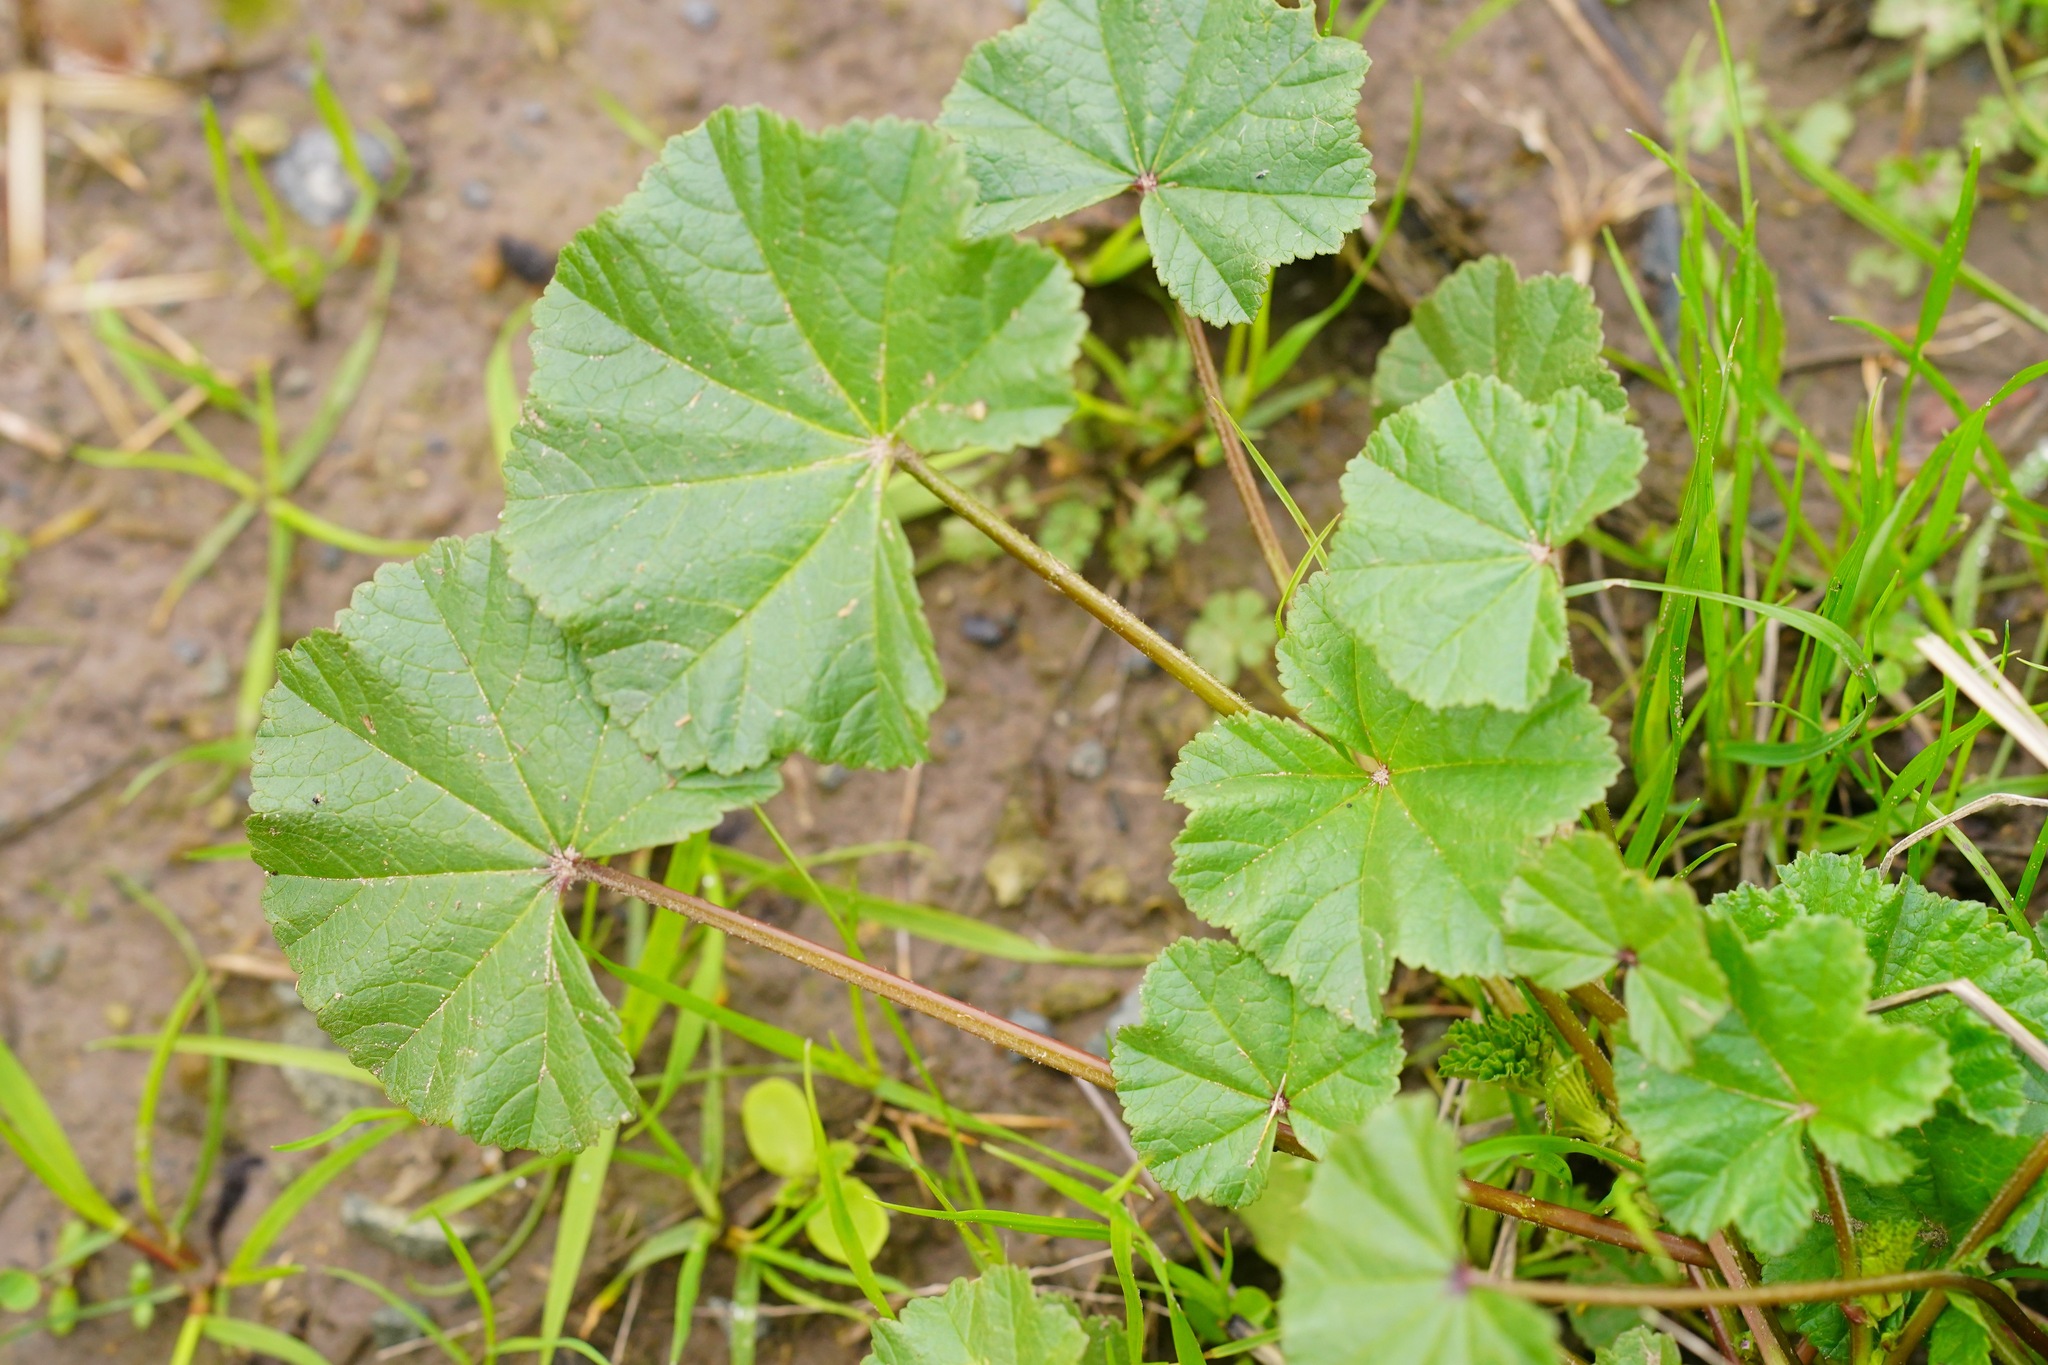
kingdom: Plantae
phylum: Tracheophyta
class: Magnoliopsida
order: Malvales
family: Malvaceae
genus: Malva
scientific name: Malva
